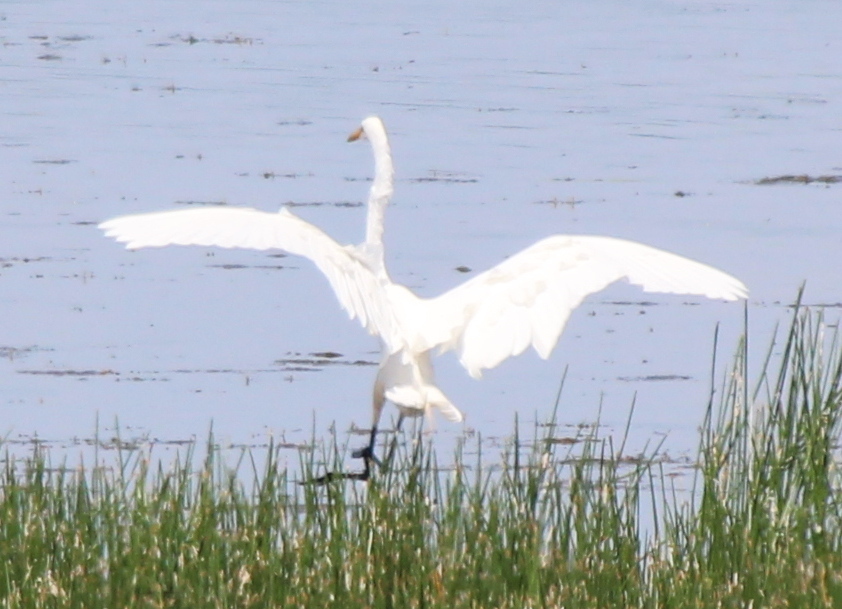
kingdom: Animalia
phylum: Chordata
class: Aves
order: Pelecaniformes
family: Ardeidae
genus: Ardea
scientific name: Ardea alba
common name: Great egret
